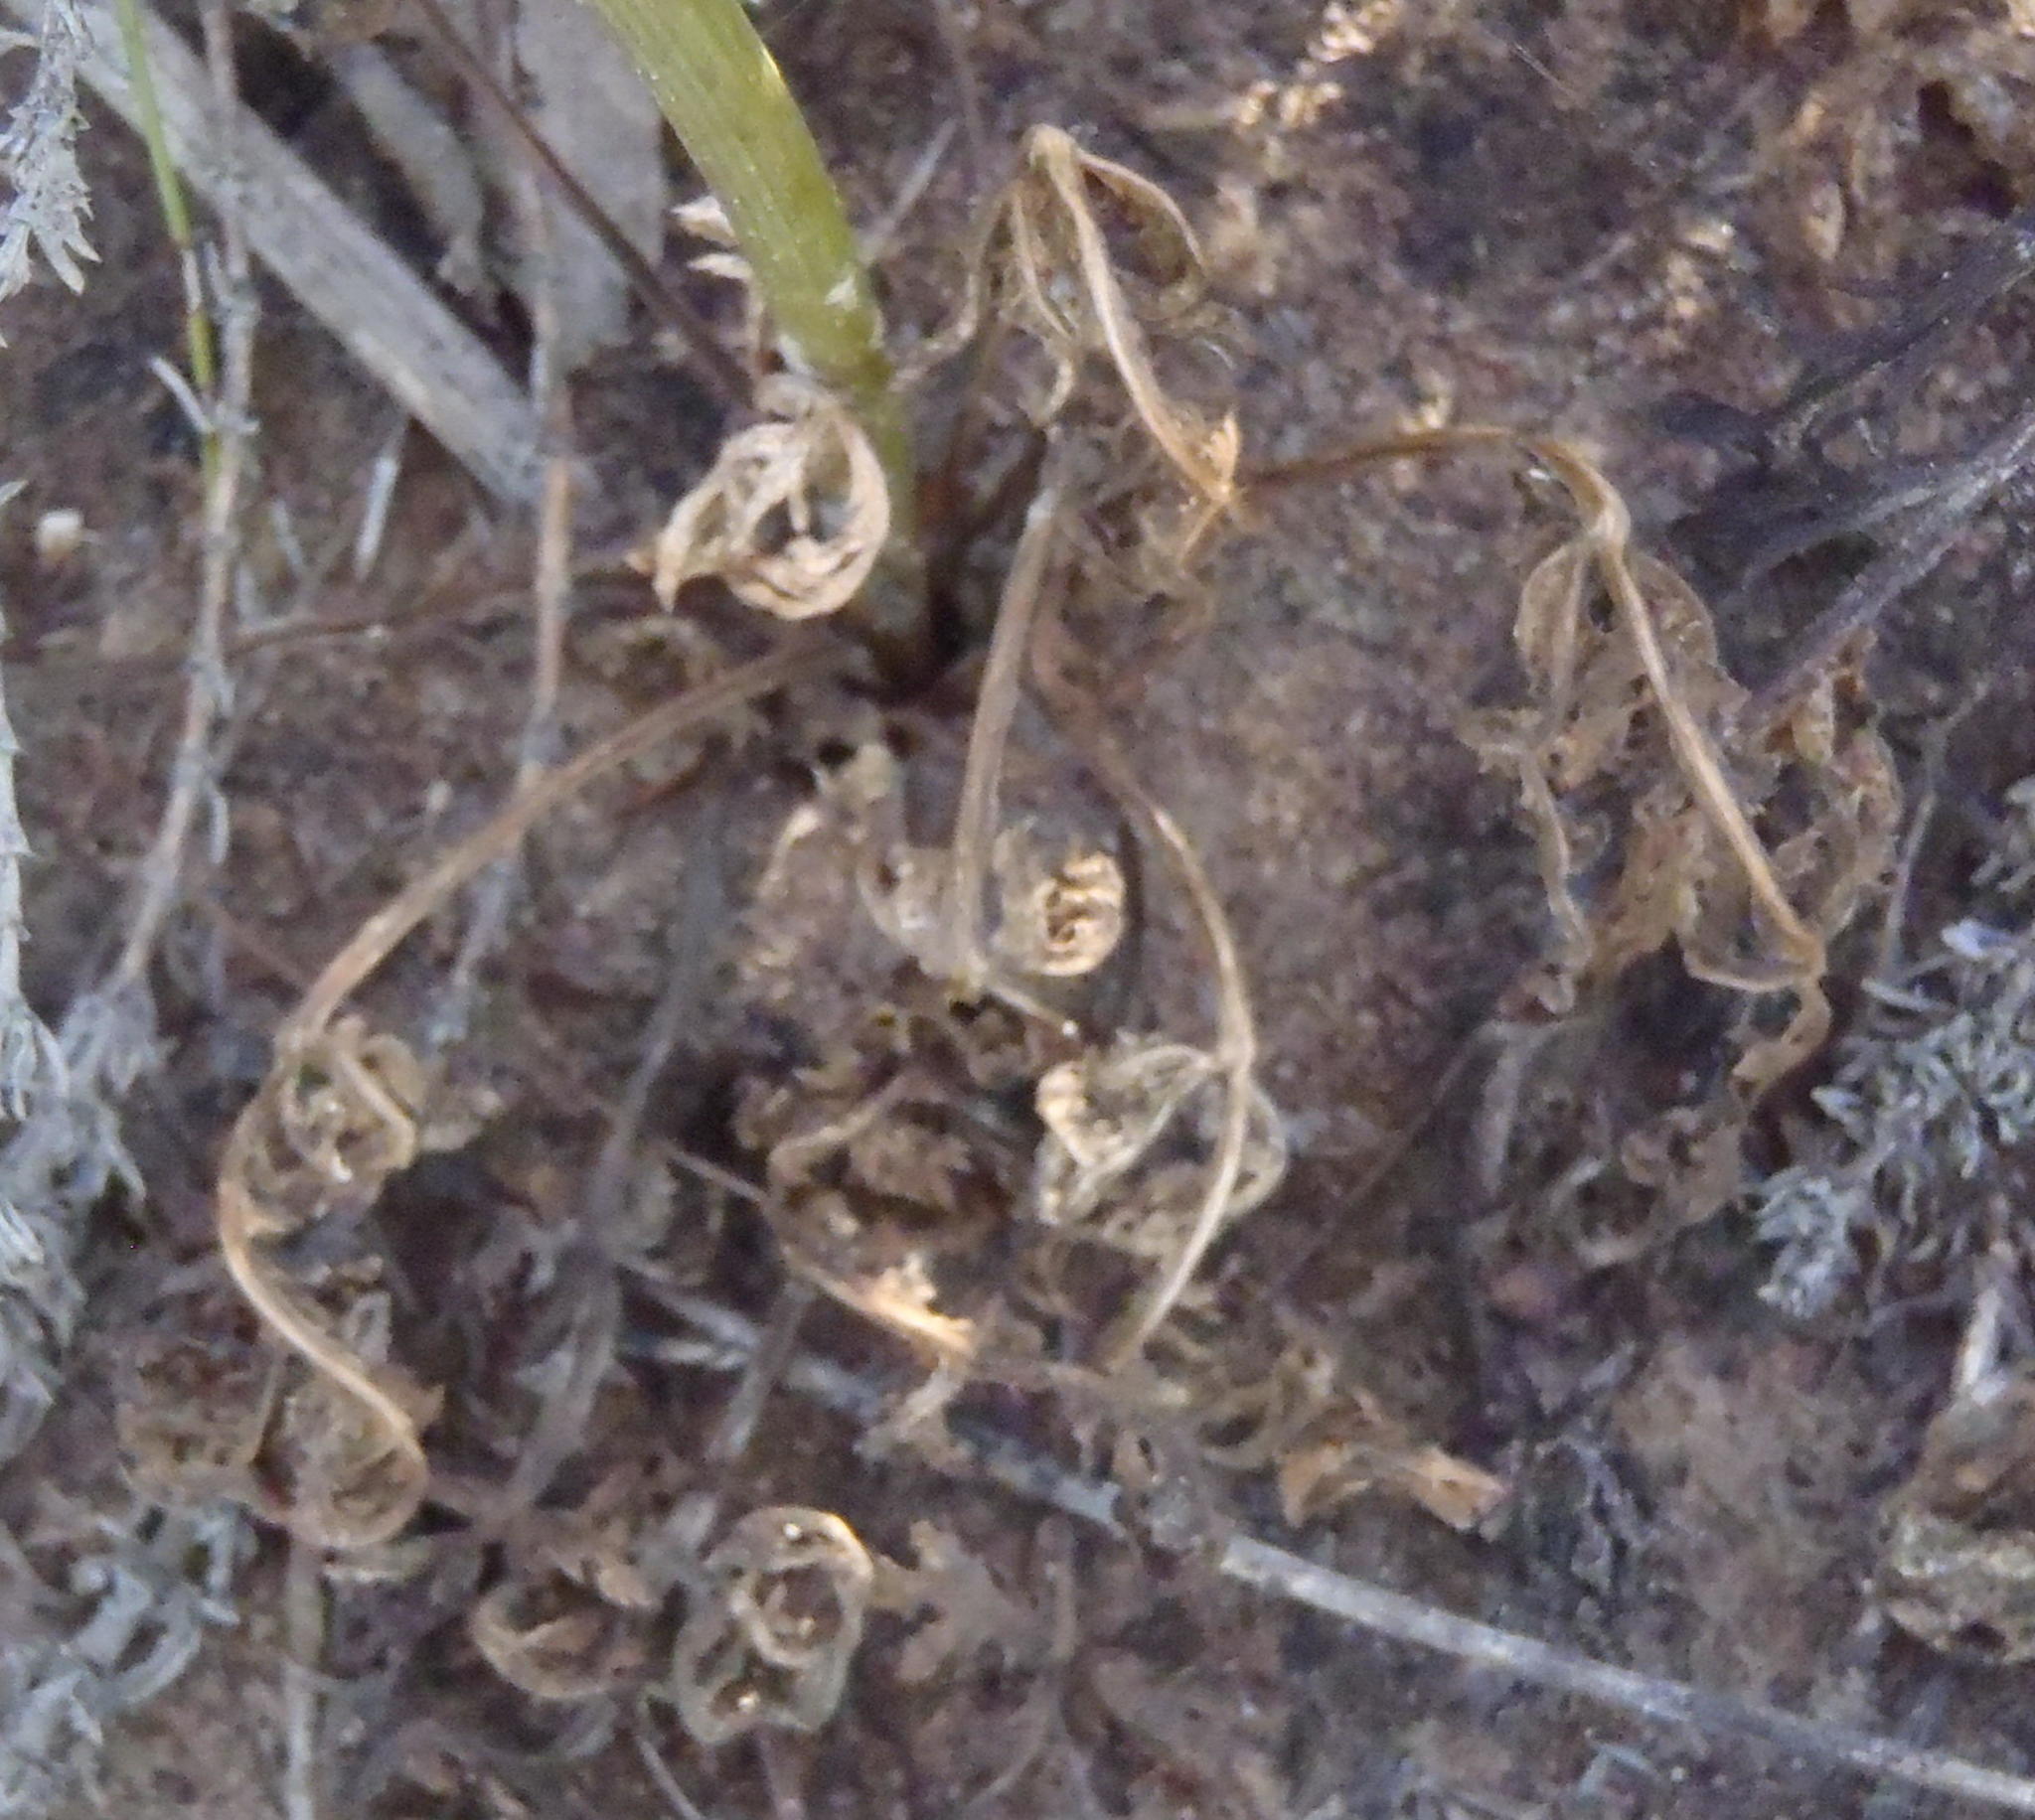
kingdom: Plantae
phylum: Tracheophyta
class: Magnoliopsida
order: Apiales
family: Apiaceae
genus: Lichtensteinia
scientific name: Lichtensteinia interrupta
